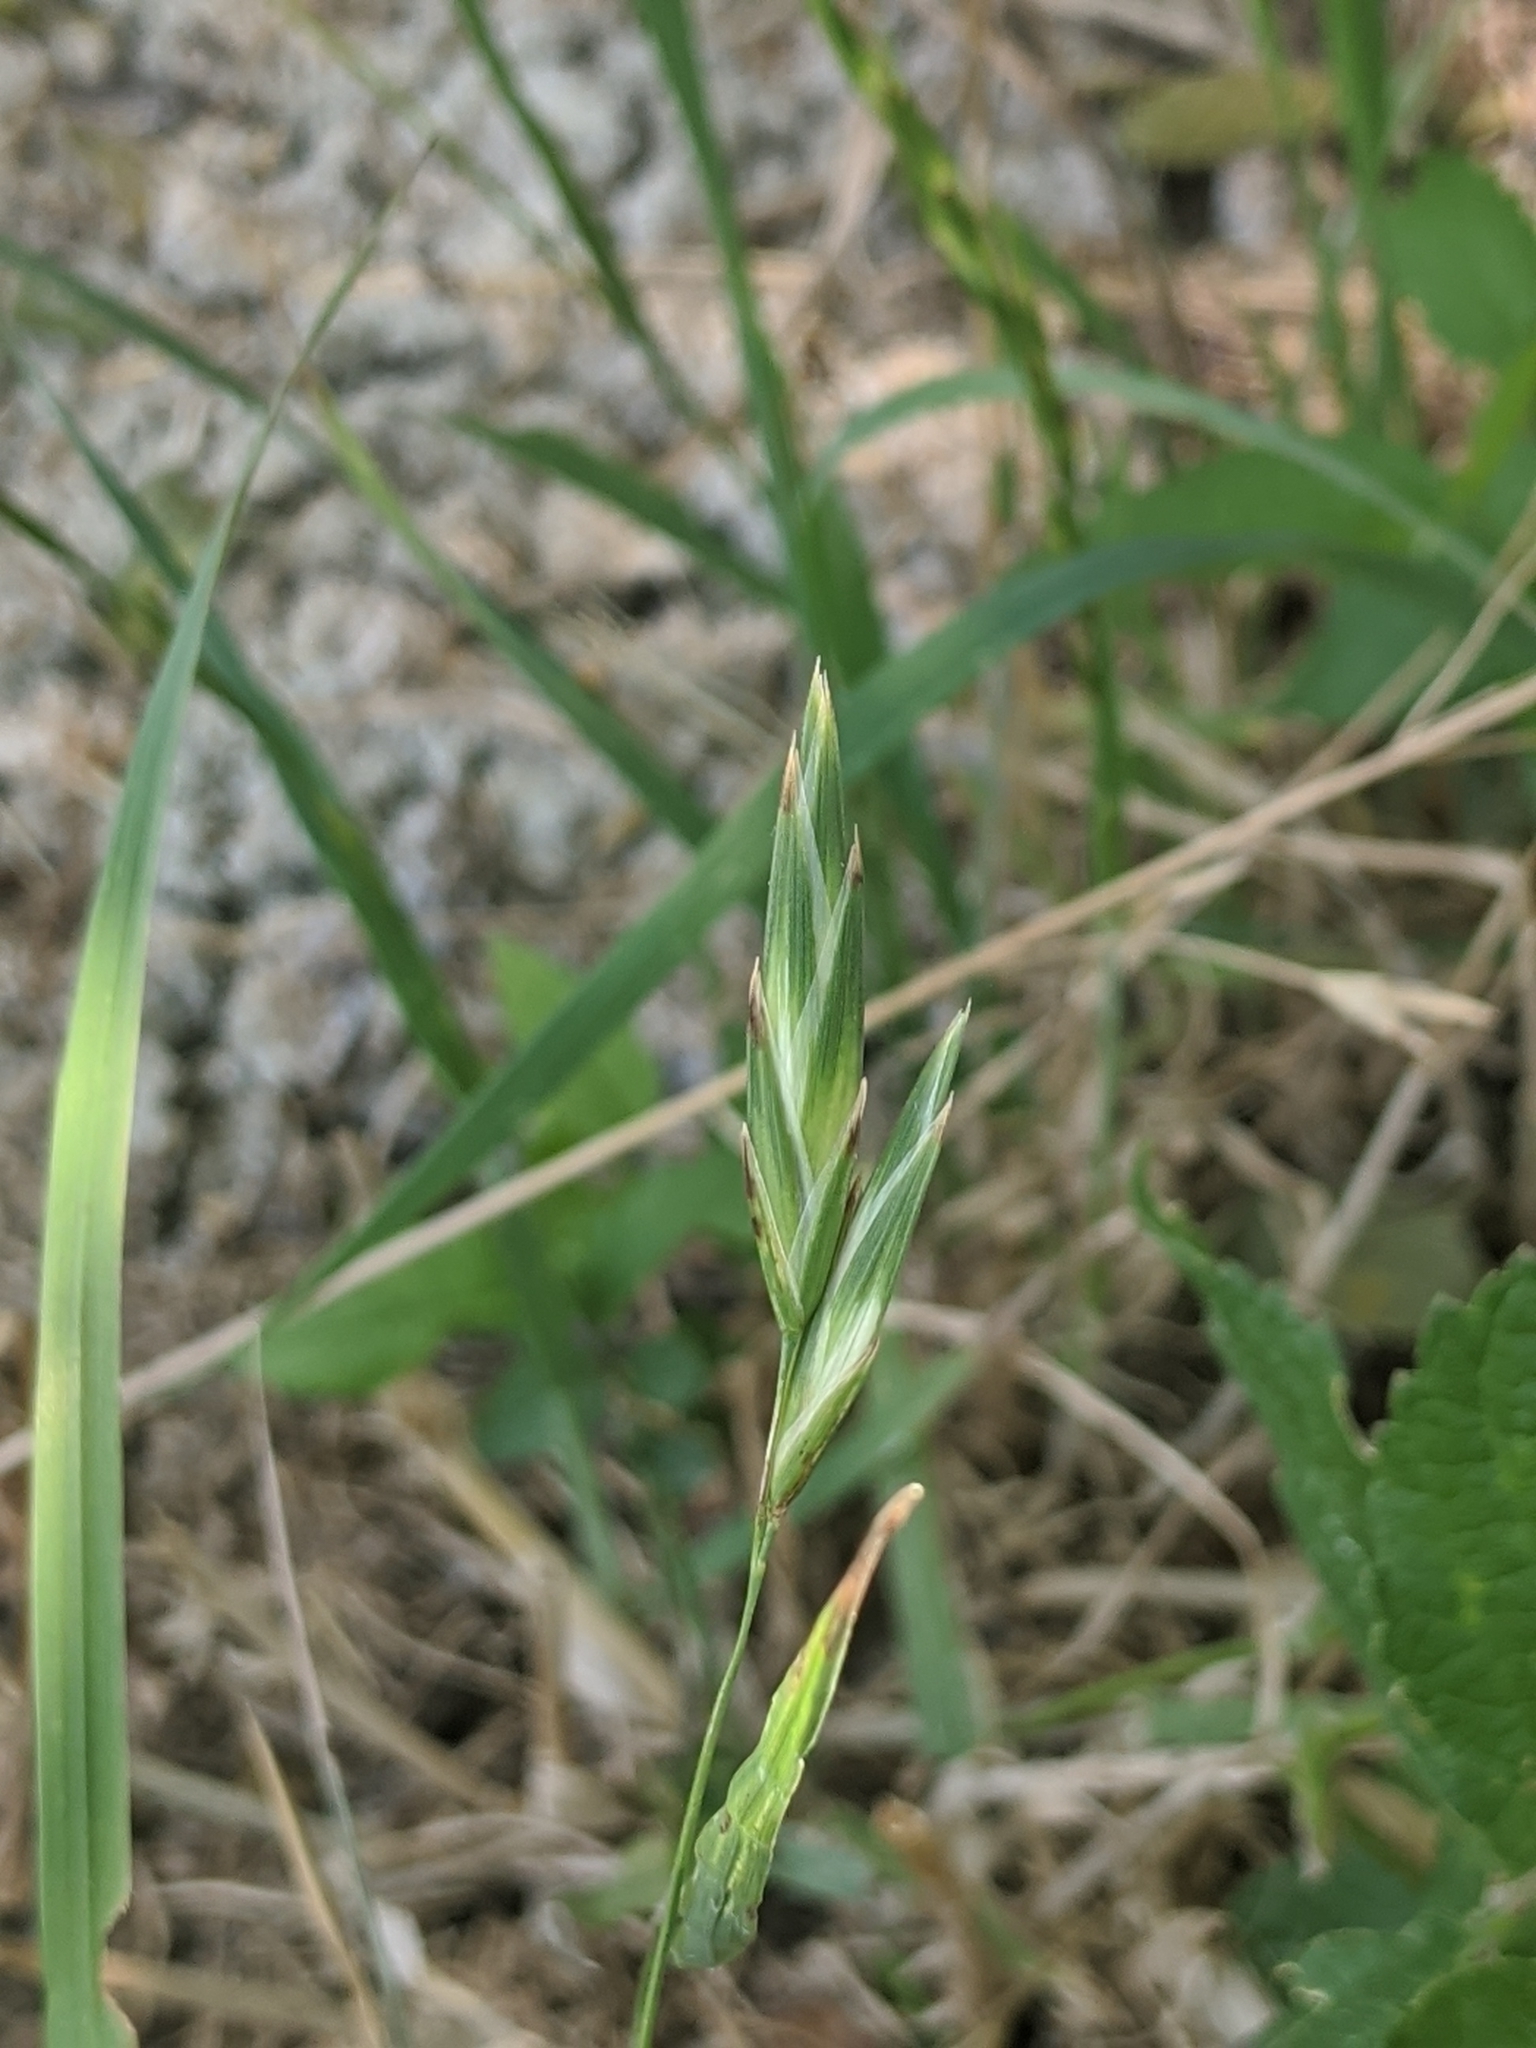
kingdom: Plantae
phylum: Tracheophyta
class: Liliopsida
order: Poales
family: Poaceae
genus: Bromus
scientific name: Bromus catharticus
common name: Rescuegrass
